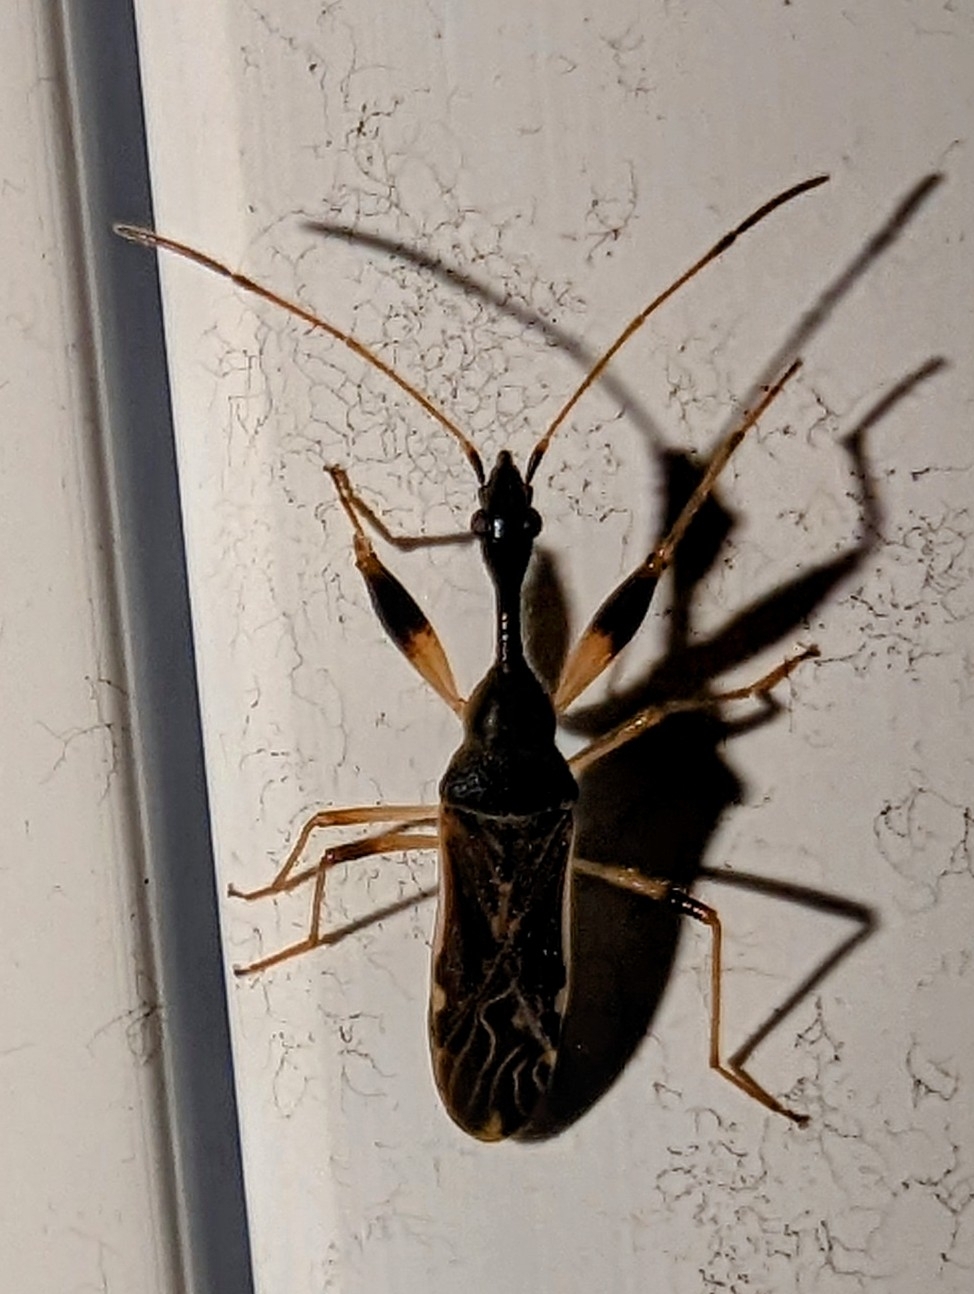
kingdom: Animalia
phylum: Arthropoda
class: Insecta
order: Hemiptera
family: Rhyparochromidae
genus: Myodocha
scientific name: Myodocha serripes
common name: Long-necked seed bug
